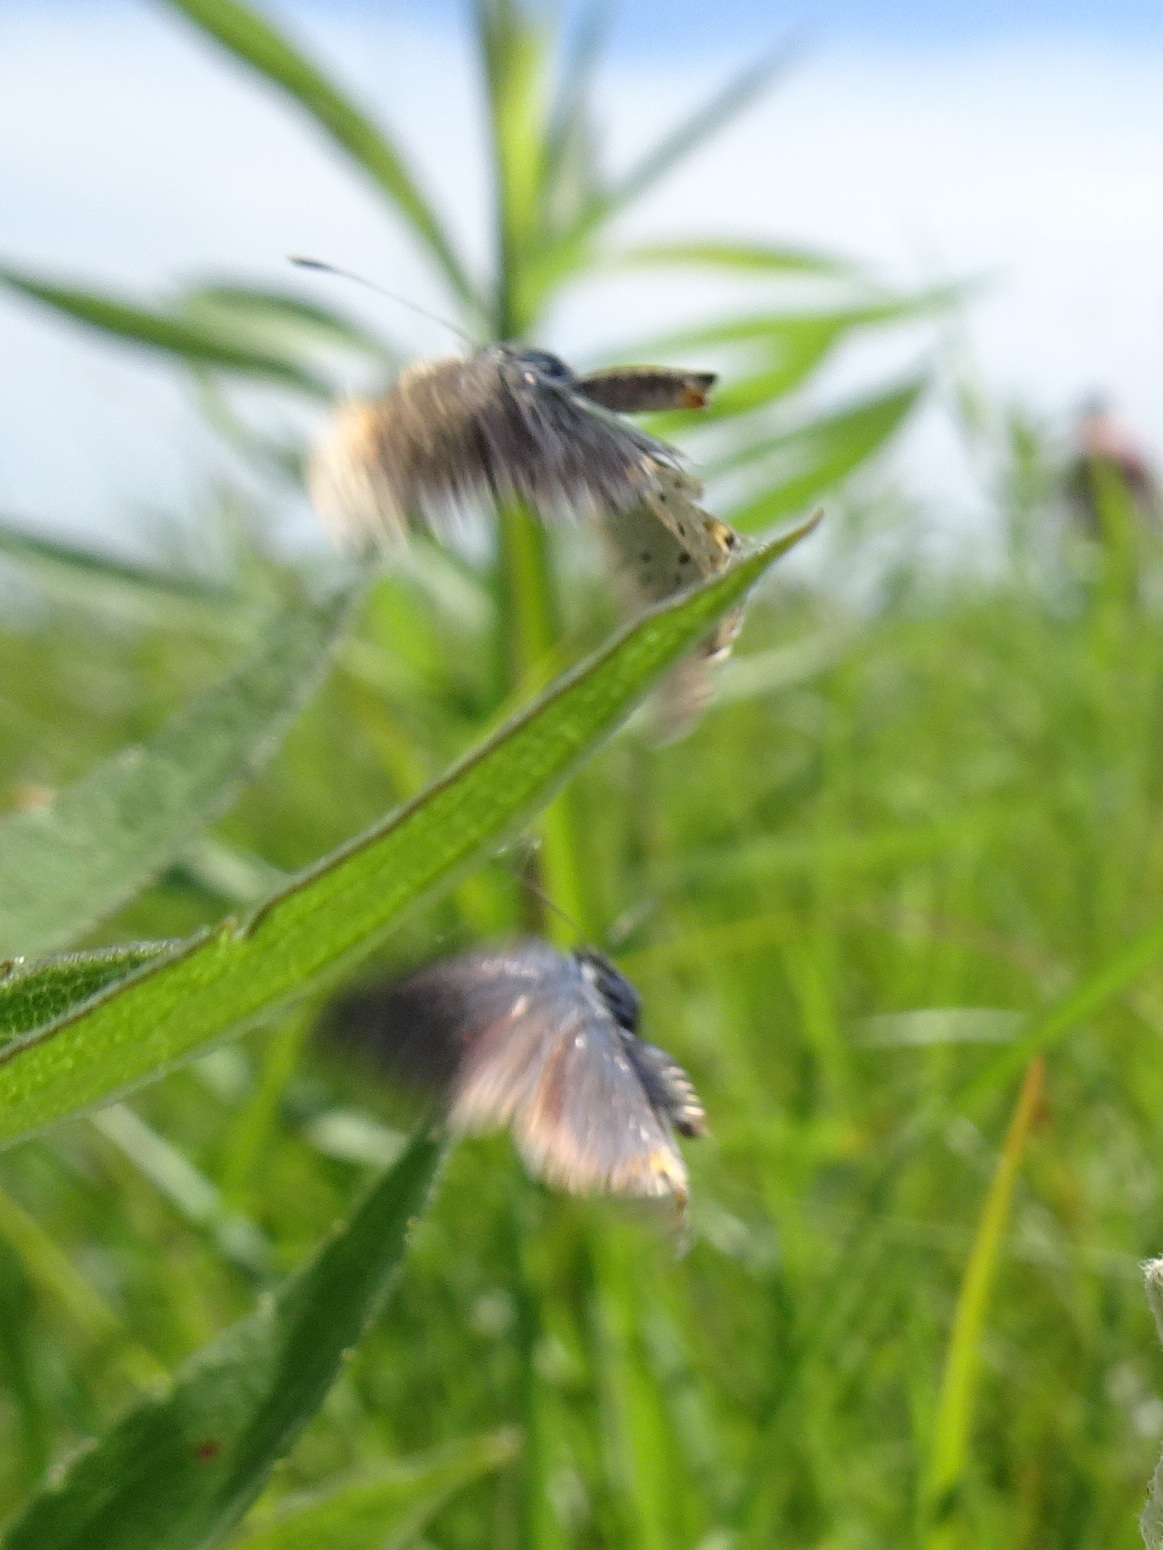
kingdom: Animalia
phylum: Arthropoda
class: Insecta
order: Lepidoptera
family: Lycaenidae
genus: Elkalyce
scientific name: Elkalyce comyntas
